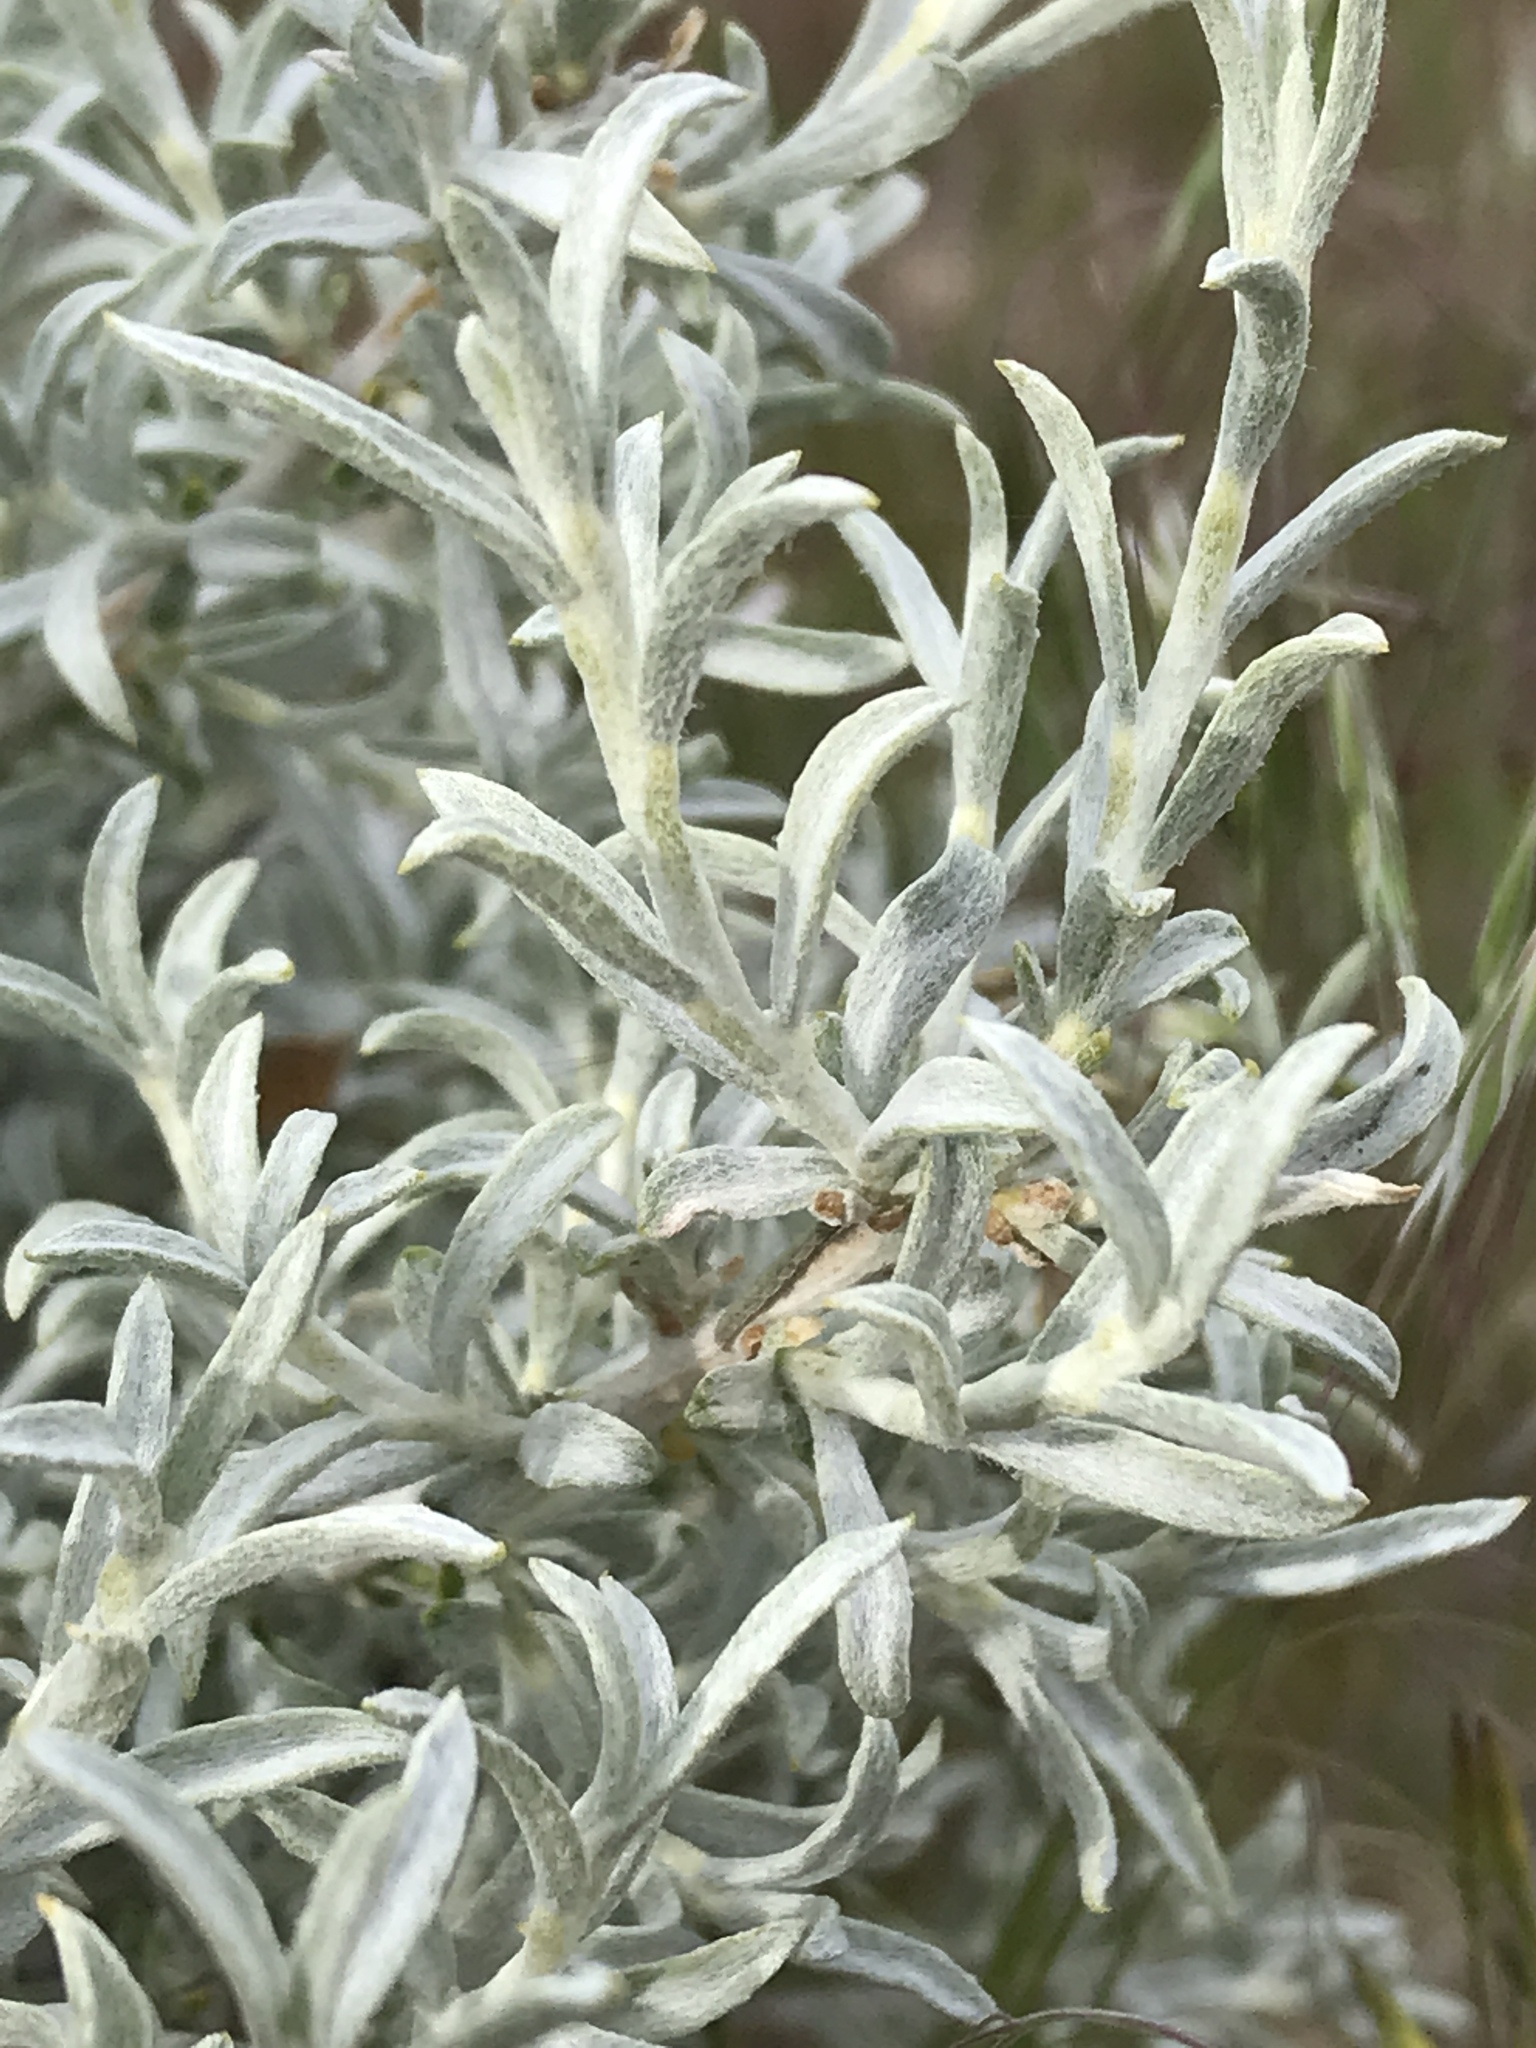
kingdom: Plantae
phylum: Tracheophyta
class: Magnoliopsida
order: Asterales
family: Asteraceae
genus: Tetradymia
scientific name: Tetradymia canescens
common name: Spineless horsebrush
